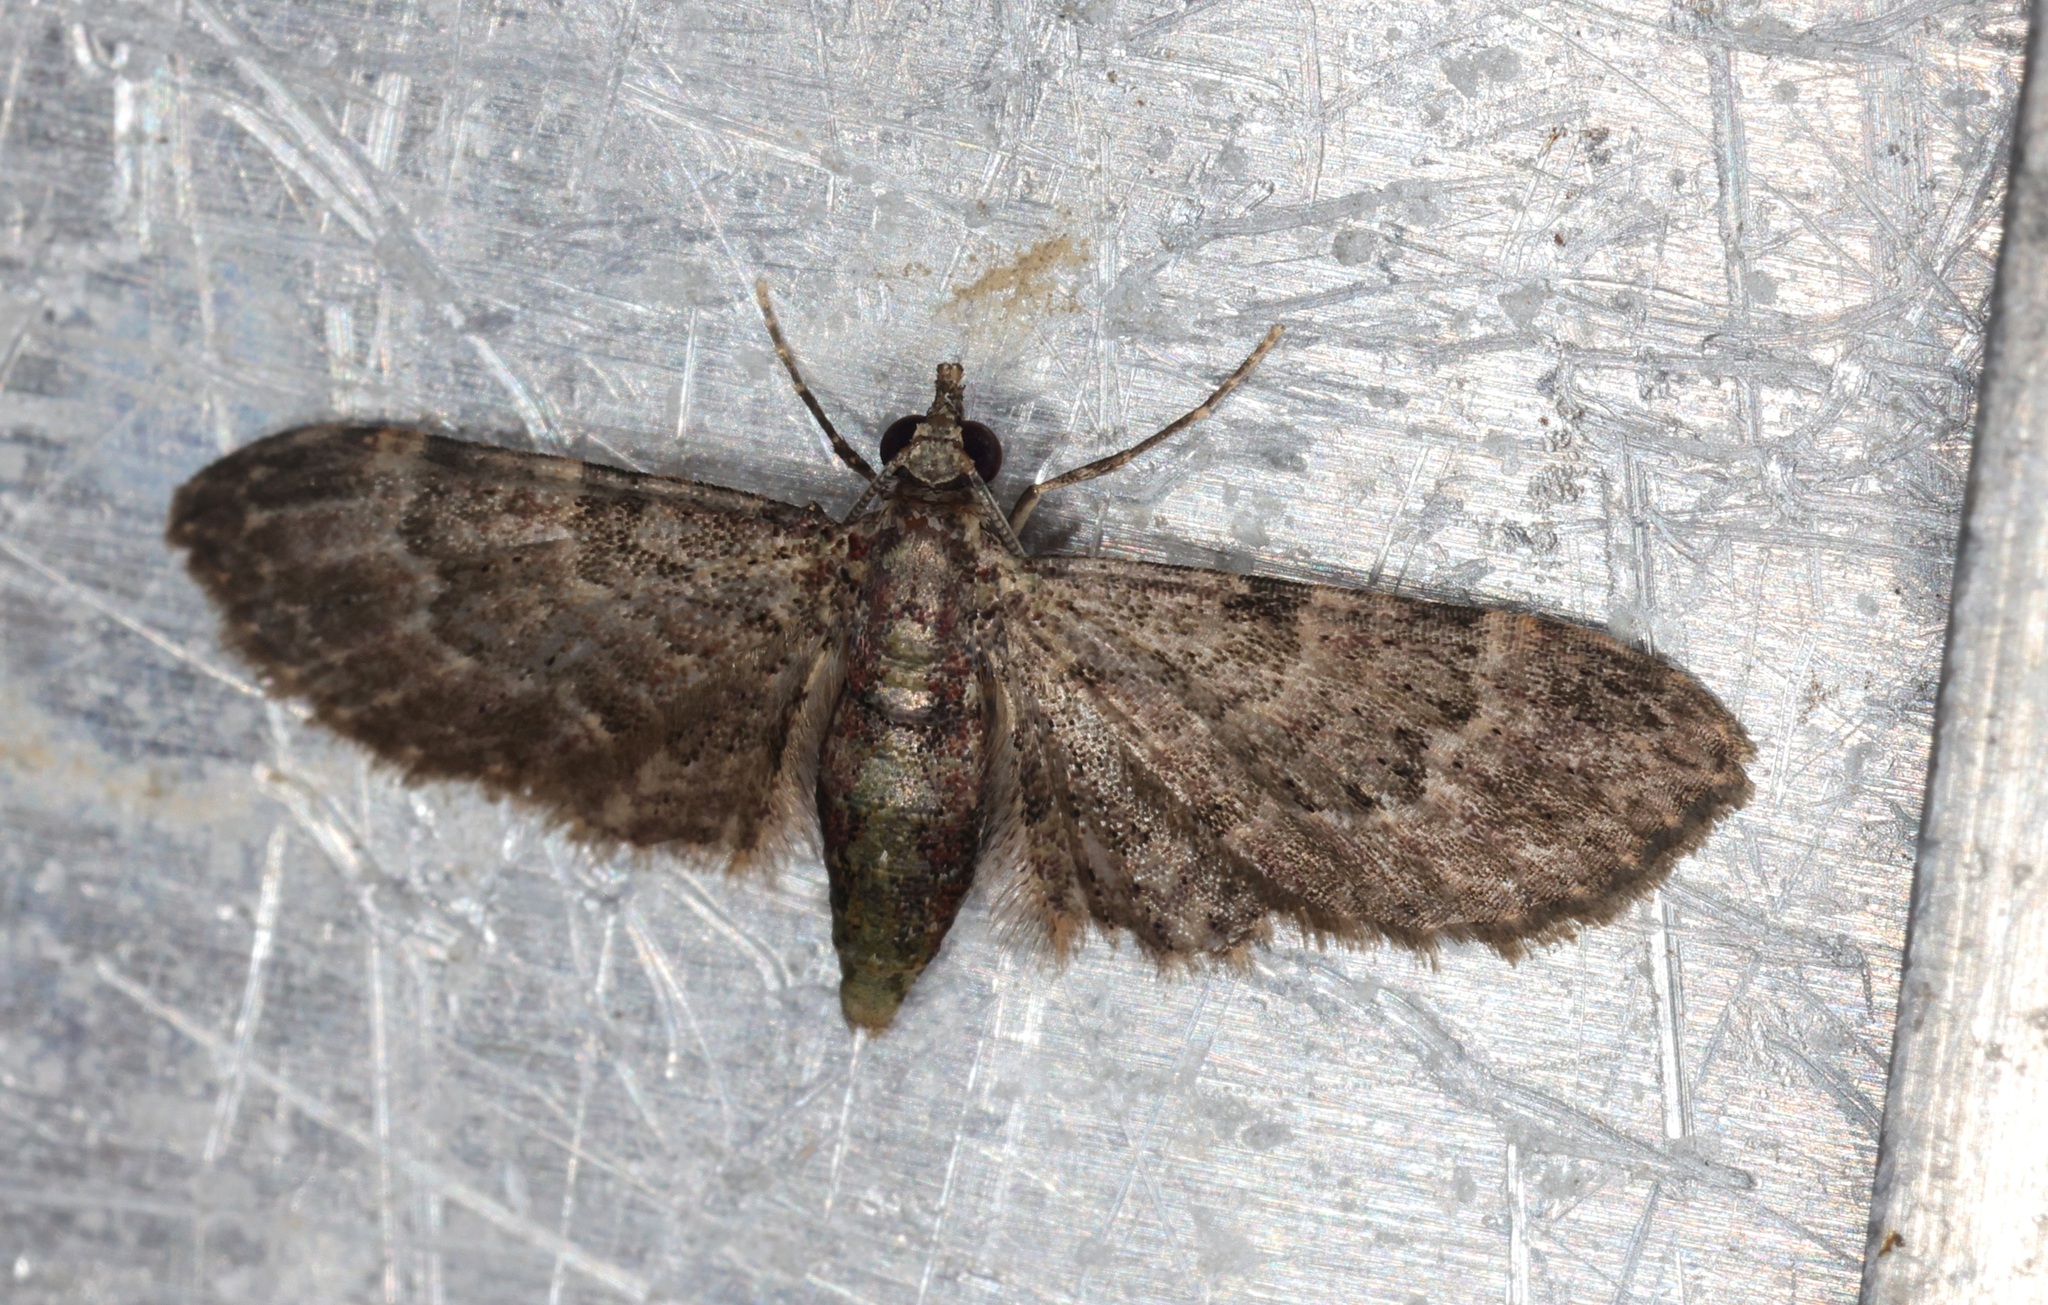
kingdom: Animalia
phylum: Arthropoda
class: Insecta
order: Lepidoptera
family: Geometridae
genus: Eriopithex
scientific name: Eriopithex recensitaria
